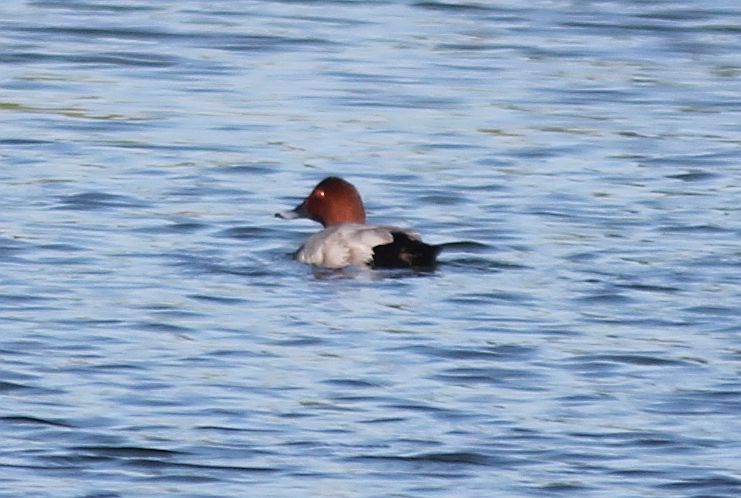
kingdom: Animalia
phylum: Chordata
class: Aves
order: Anseriformes
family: Anatidae
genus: Aythya
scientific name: Aythya ferina
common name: Common pochard
